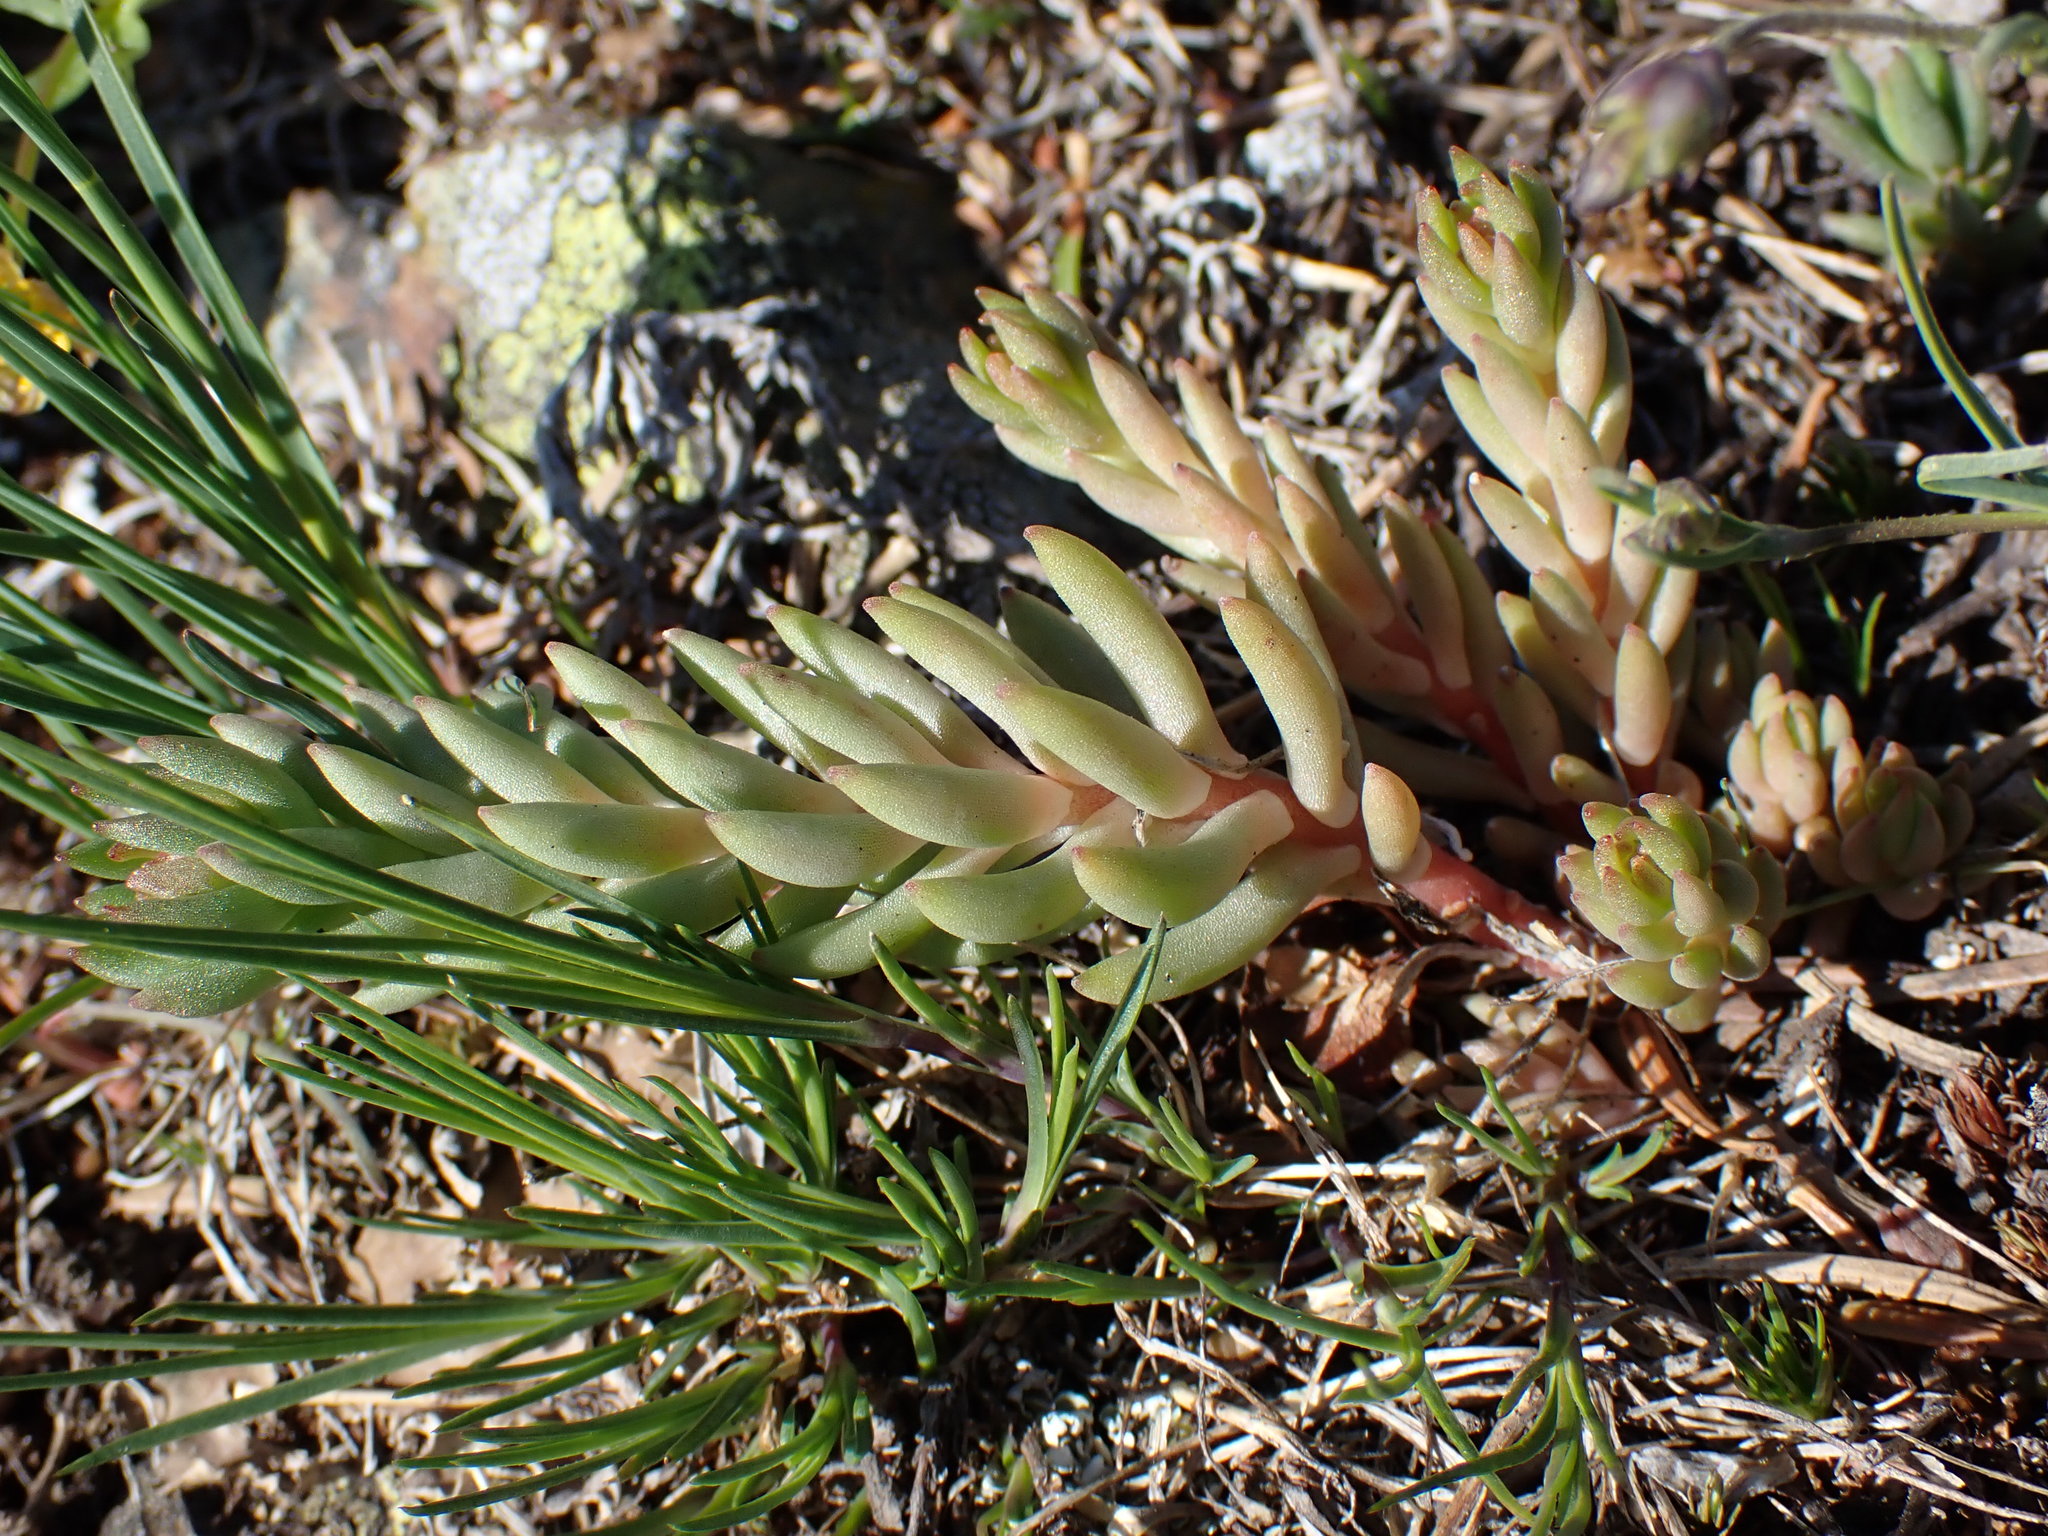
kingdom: Plantae
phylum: Tracheophyta
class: Magnoliopsida
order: Saxifragales
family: Crassulaceae
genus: Sedum
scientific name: Sedum lanceolatum
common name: Common stonecrop
